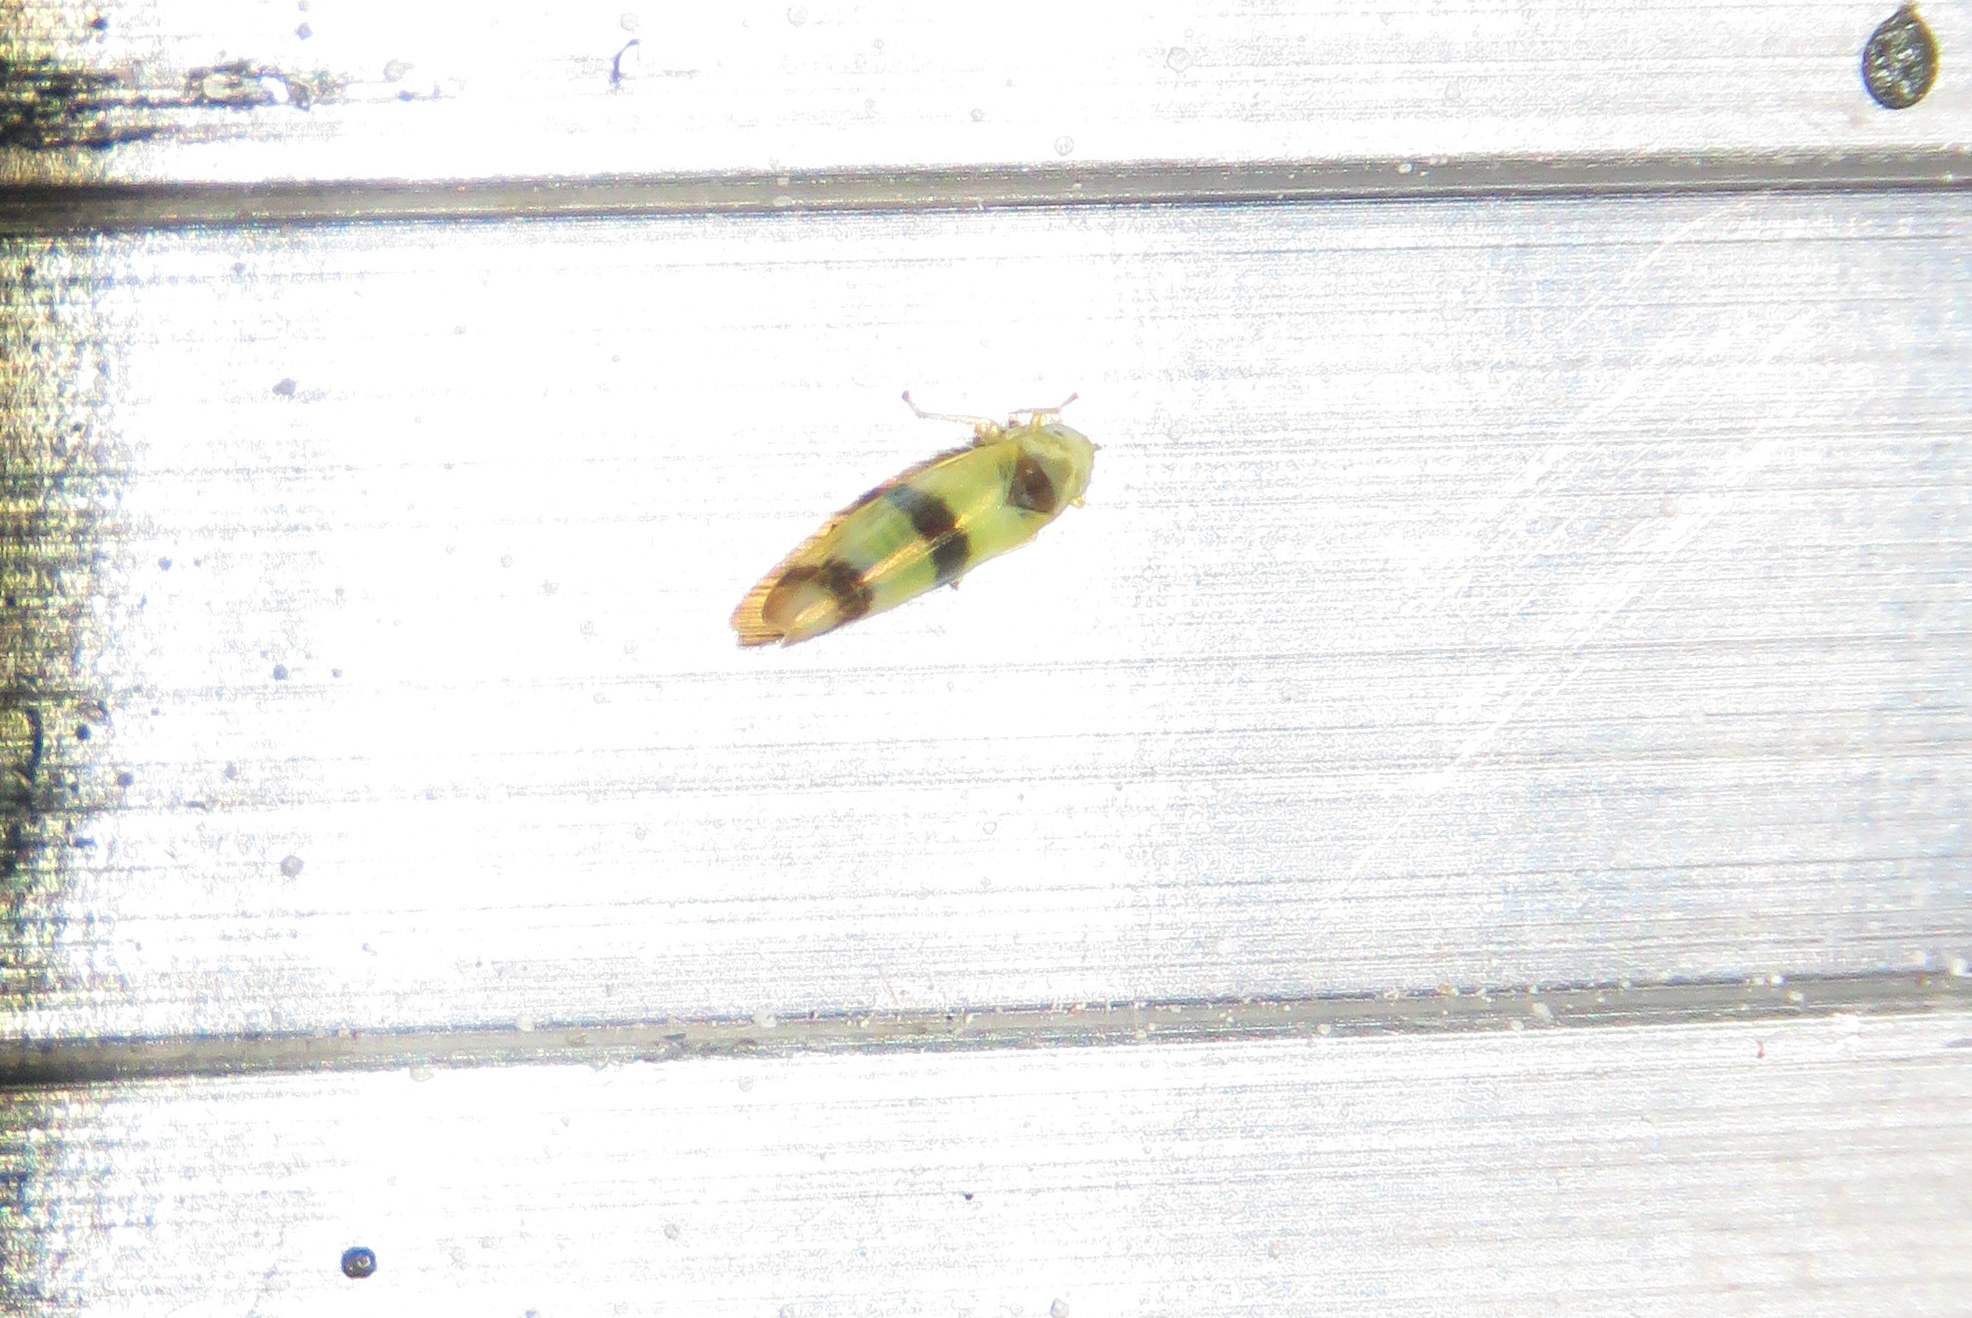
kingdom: Animalia
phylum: Arthropoda
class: Insecta
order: Hemiptera
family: Cicadellidae
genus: Empoa
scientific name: Empoa gillettei
